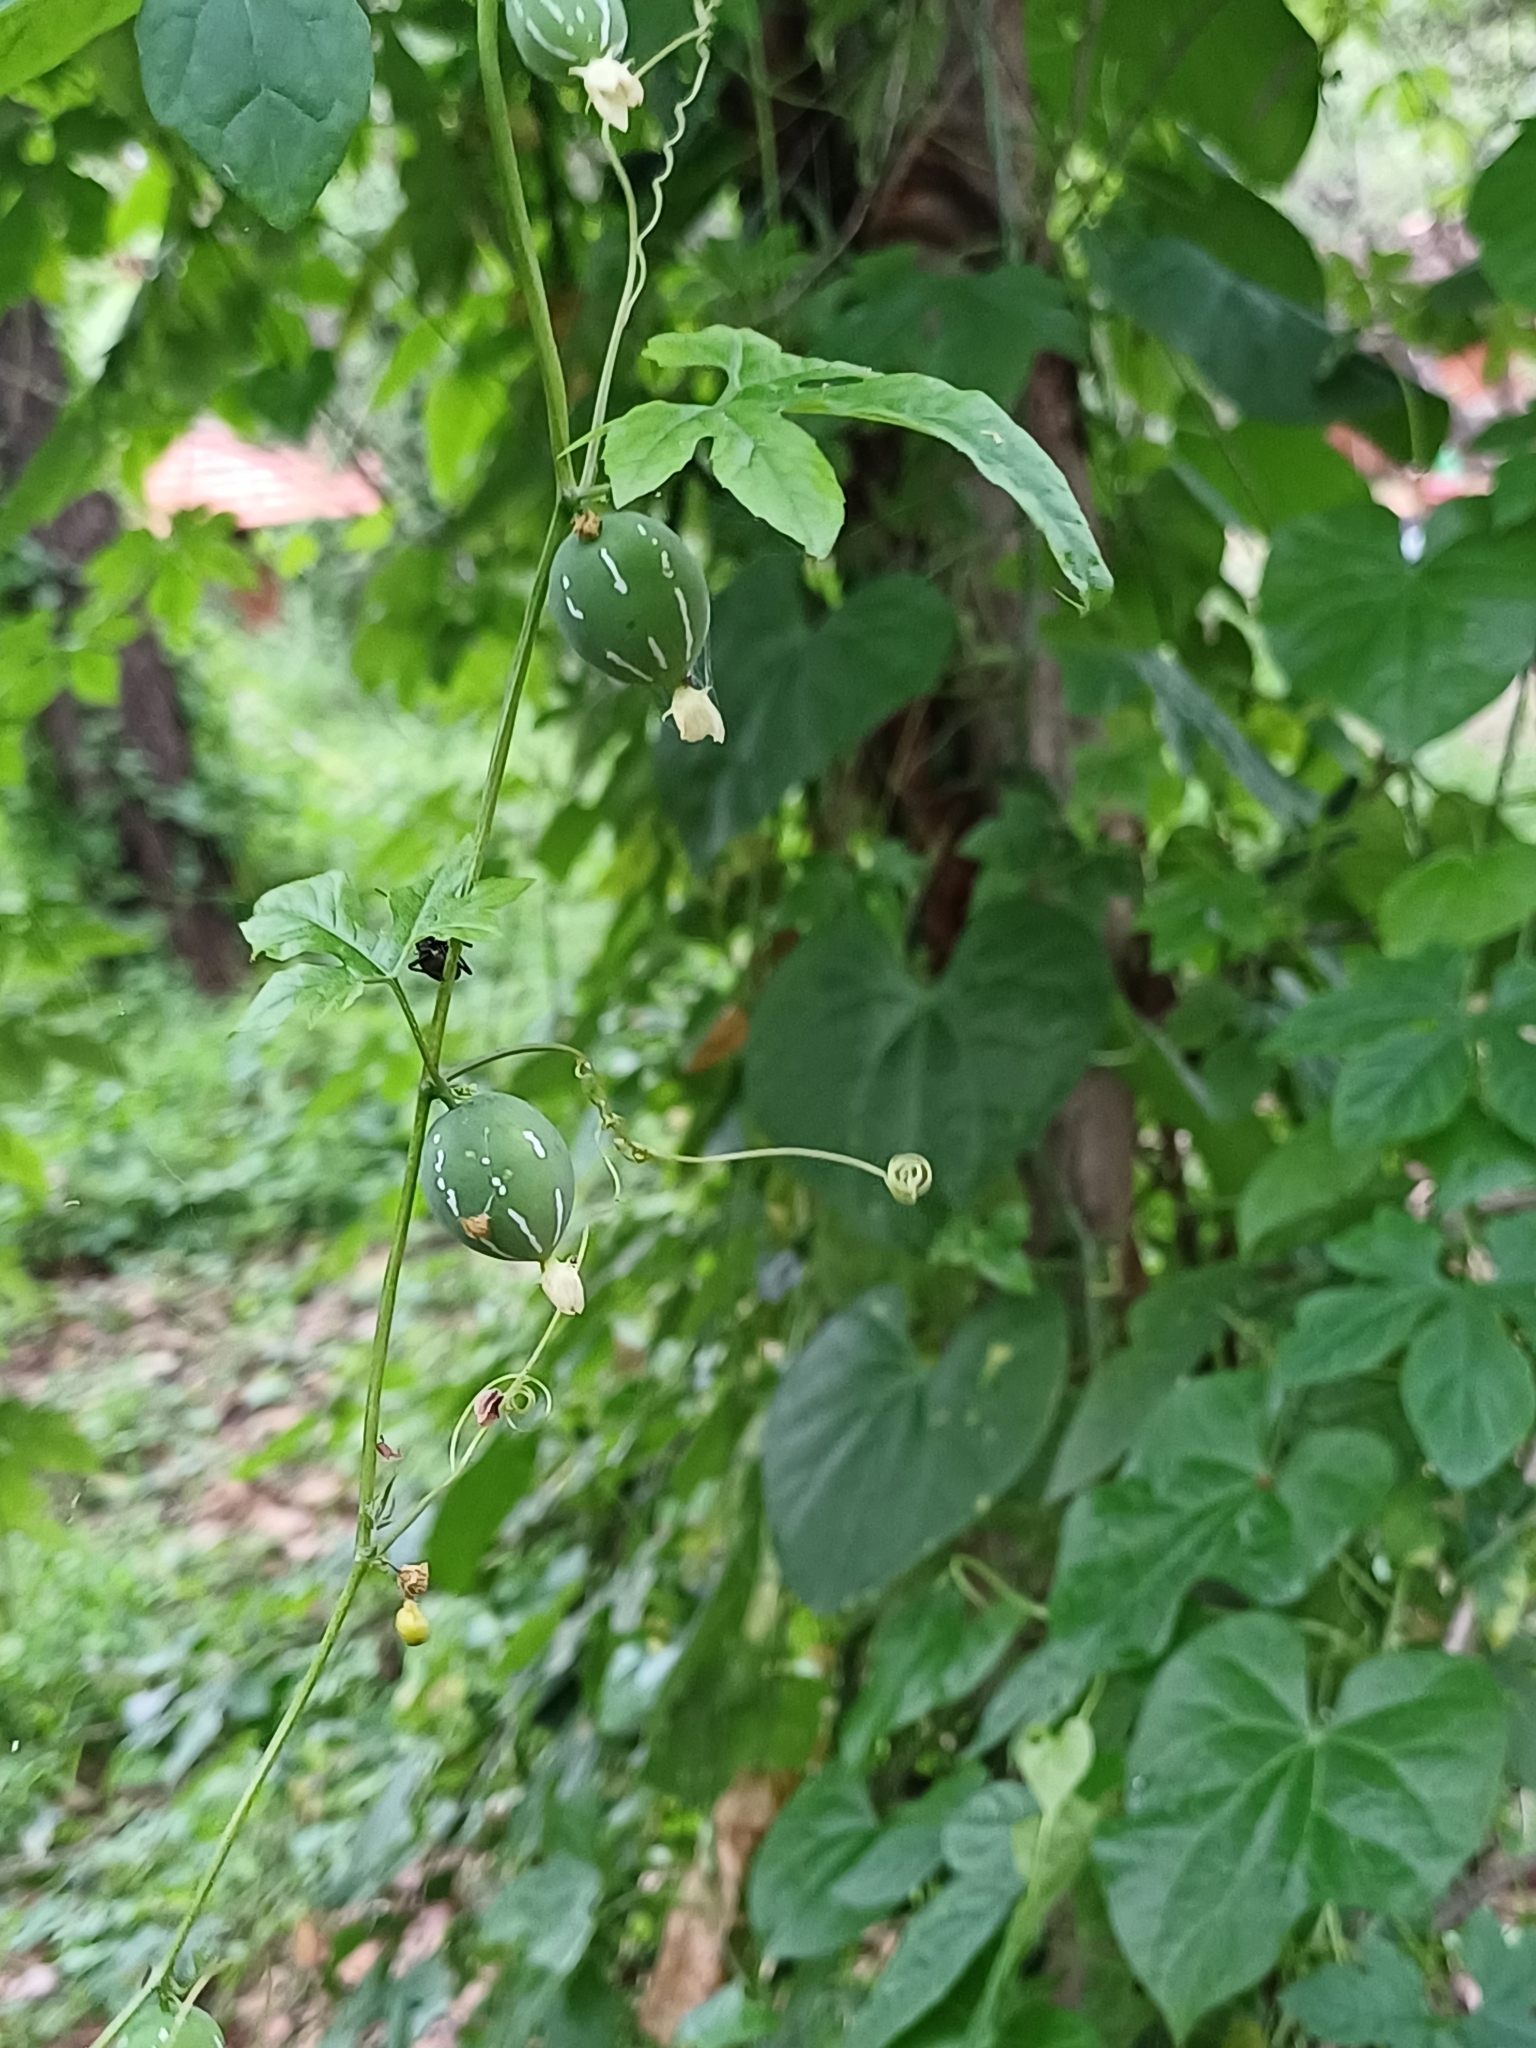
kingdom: Plantae
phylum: Tracheophyta
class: Magnoliopsida
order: Cucurbitales
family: Cucurbitaceae
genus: Diplocyclos
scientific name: Diplocyclos palmatus
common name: Striped-cucumber
